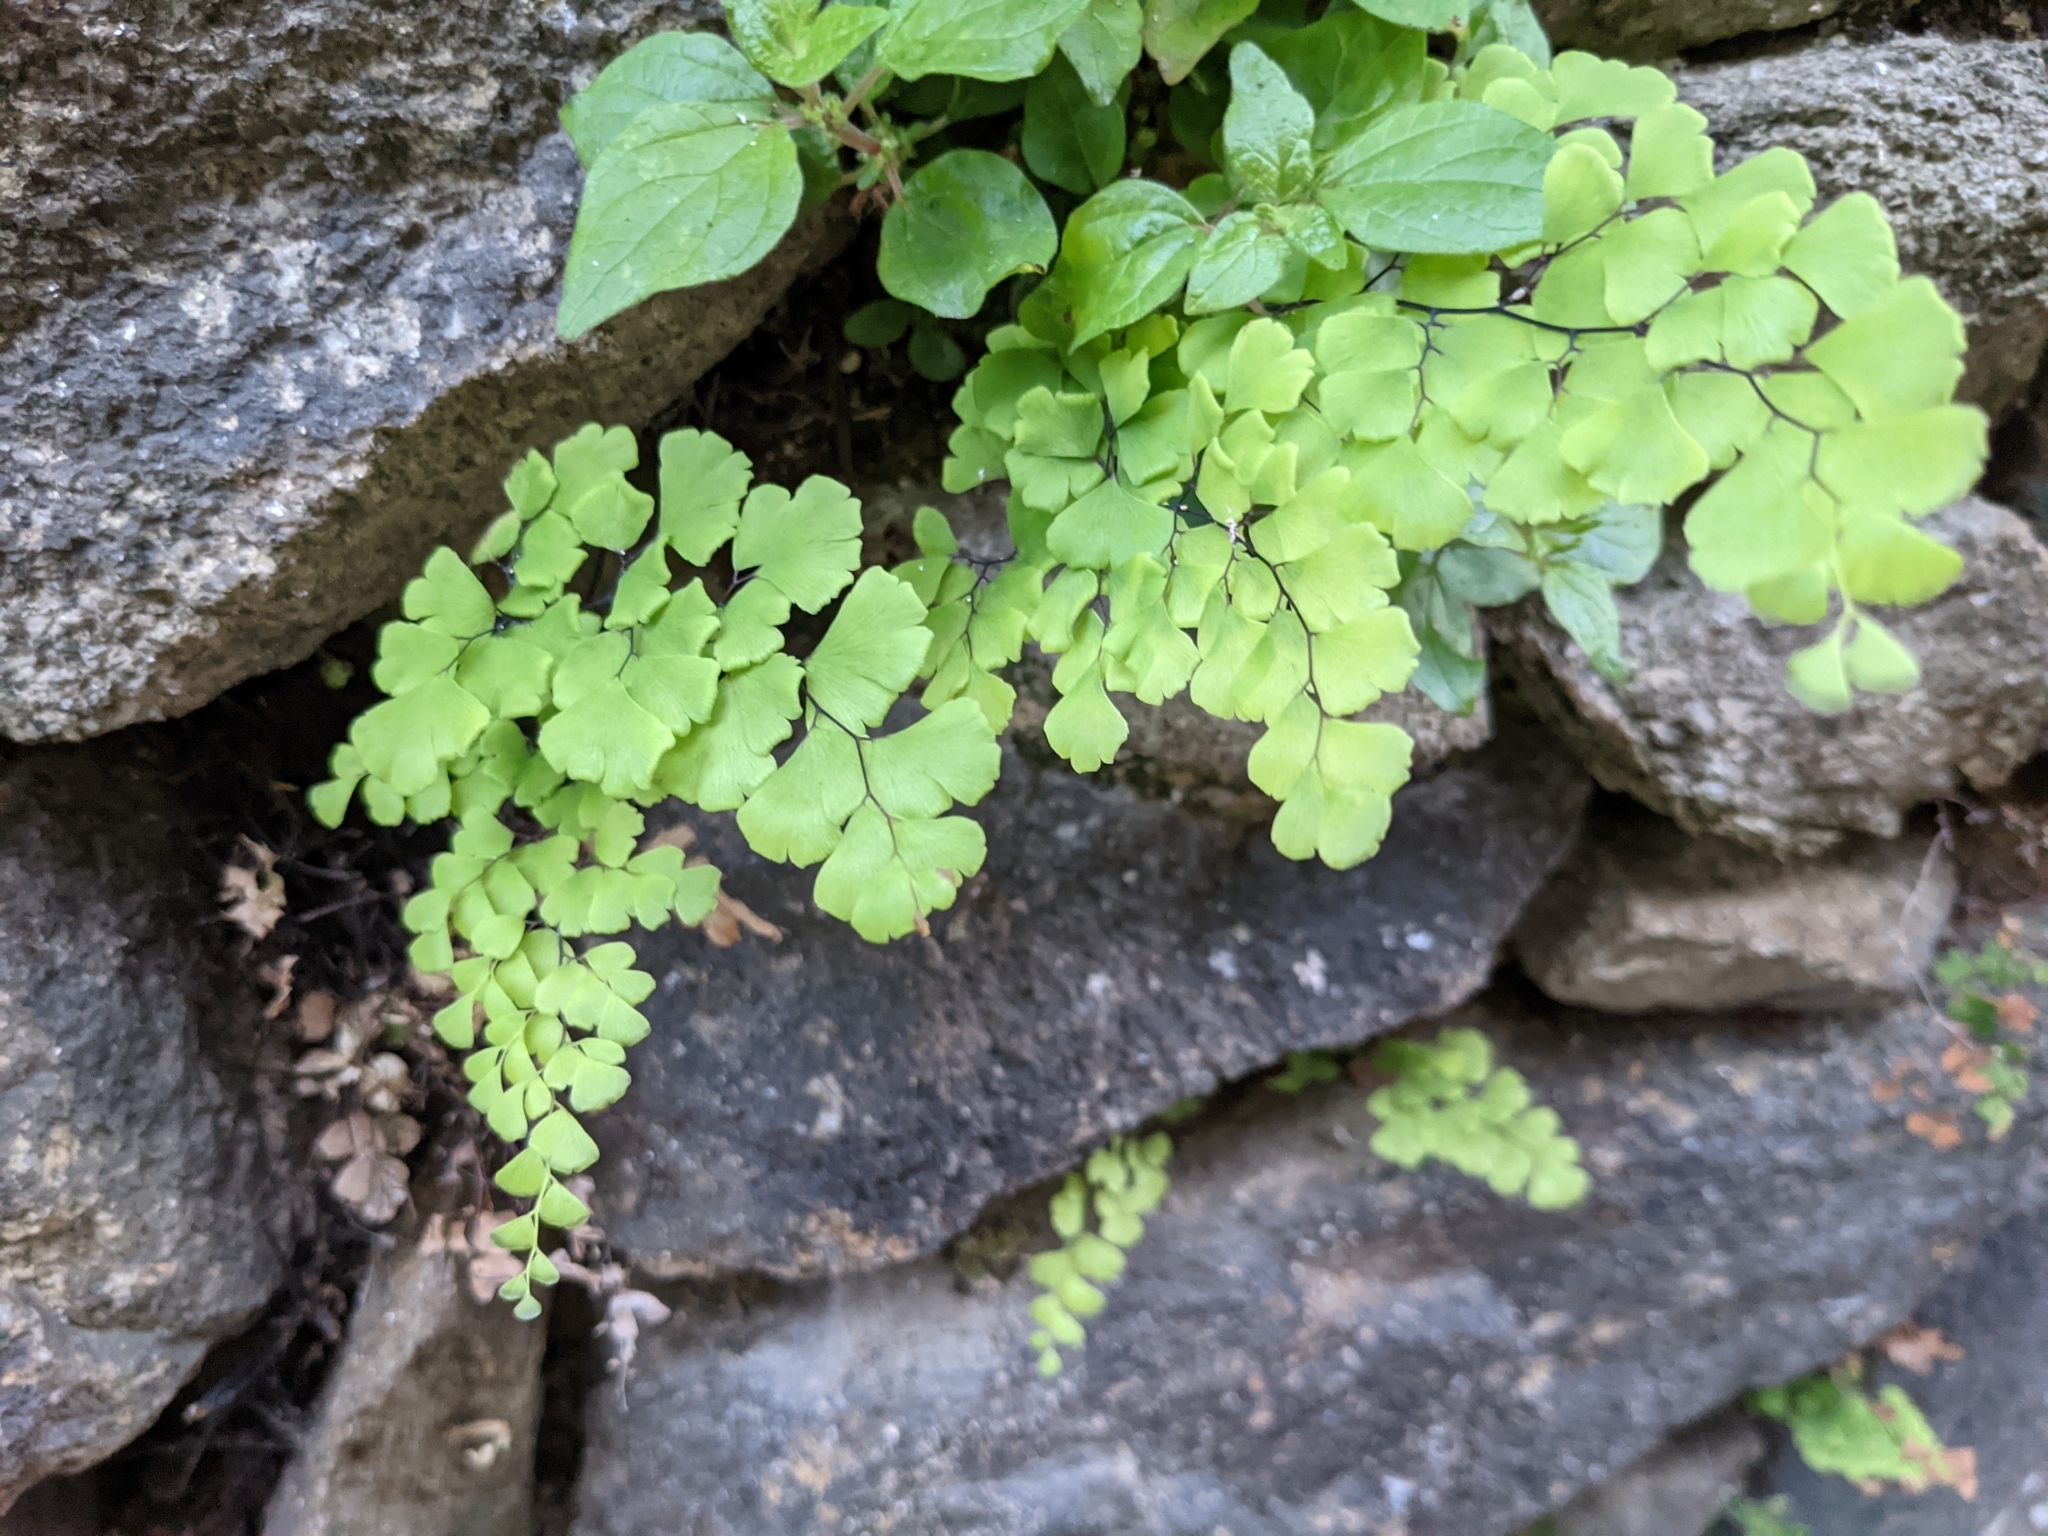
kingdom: Plantae
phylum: Tracheophyta
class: Polypodiopsida
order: Polypodiales
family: Pteridaceae
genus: Adiantum
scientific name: Adiantum capillus-veneris
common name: Maidenhair fern
